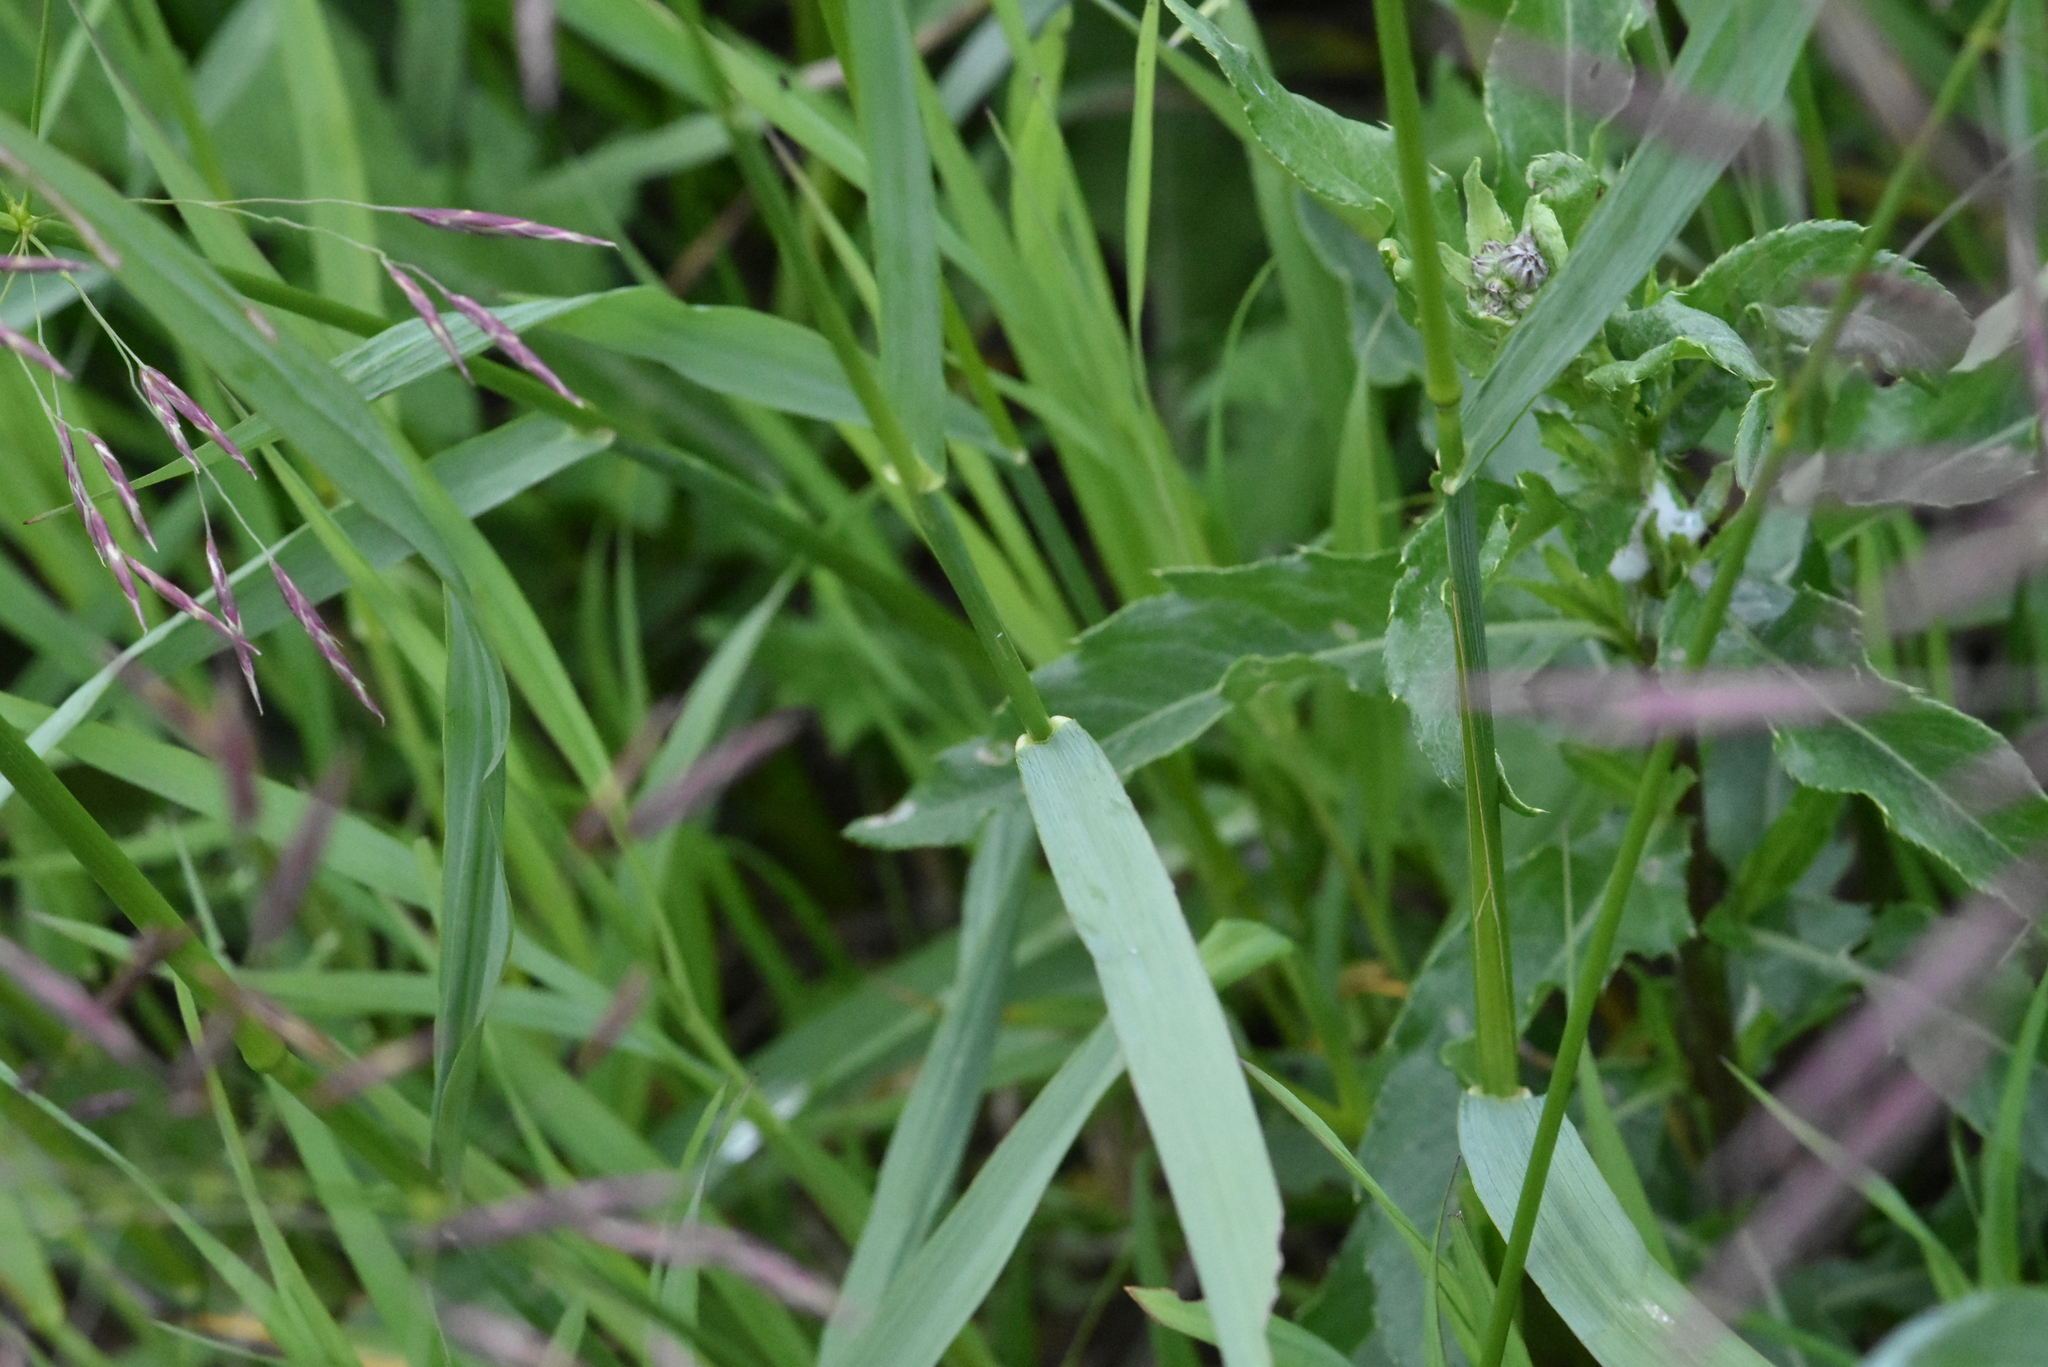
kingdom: Plantae
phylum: Tracheophyta
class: Liliopsida
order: Poales
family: Poaceae
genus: Bromus
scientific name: Bromus inermis
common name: Smooth brome
